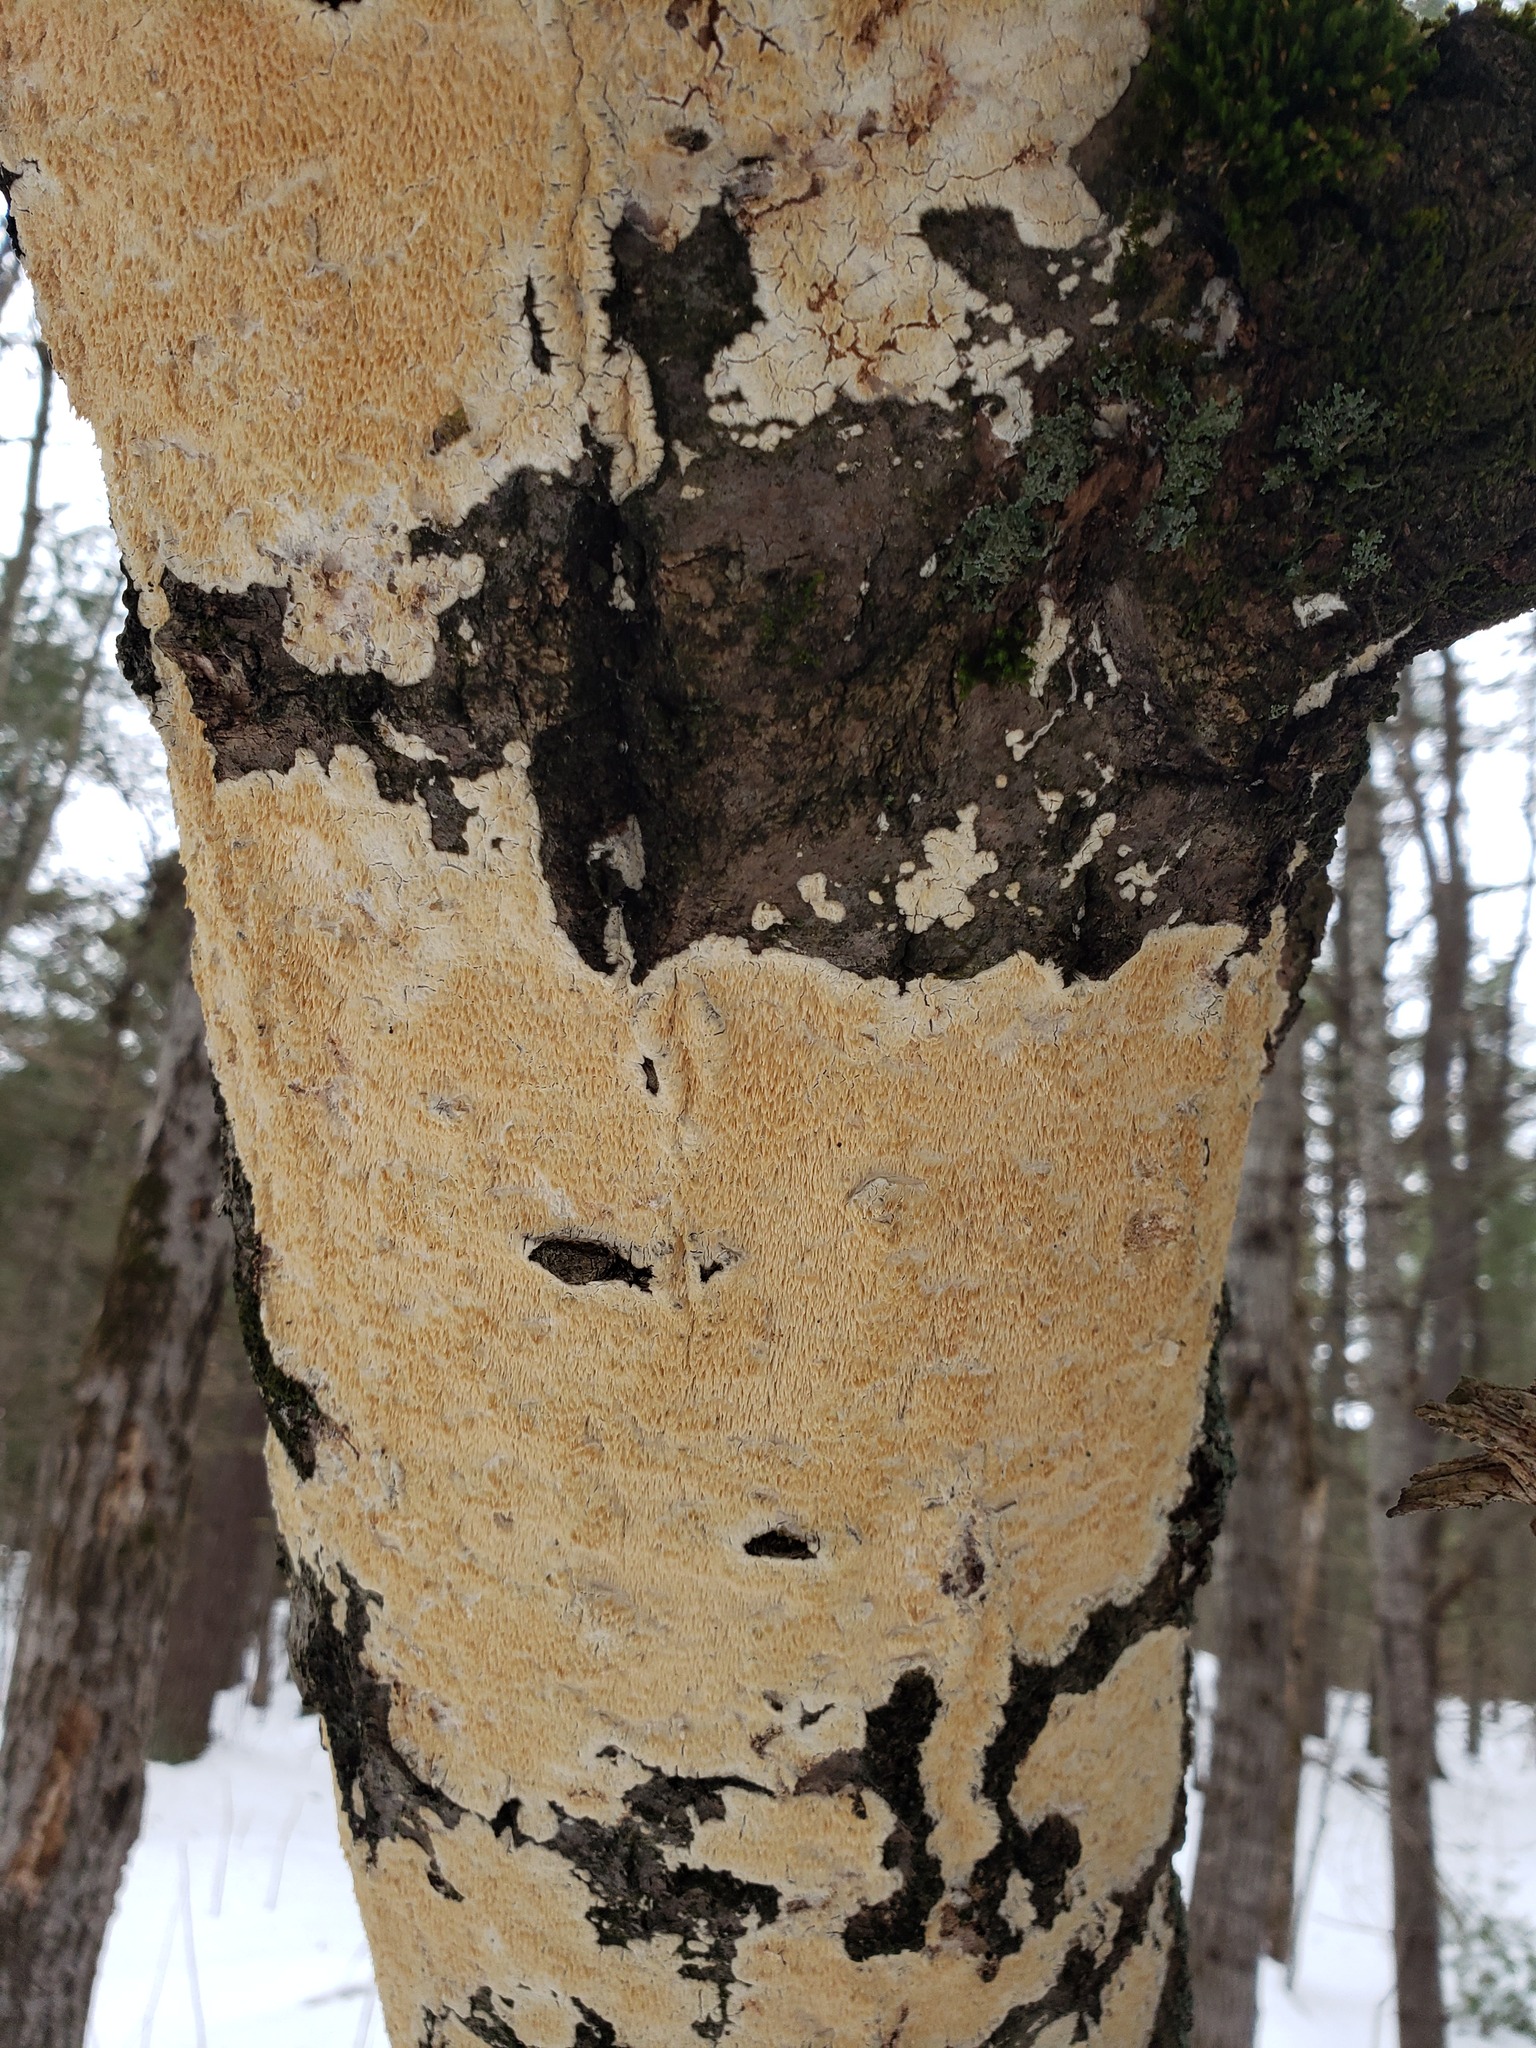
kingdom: Fungi
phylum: Basidiomycota
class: Agaricomycetes
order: Polyporales
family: Irpicaceae
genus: Irpex
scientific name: Irpex lacteus
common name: Milk-white toothed polypore
